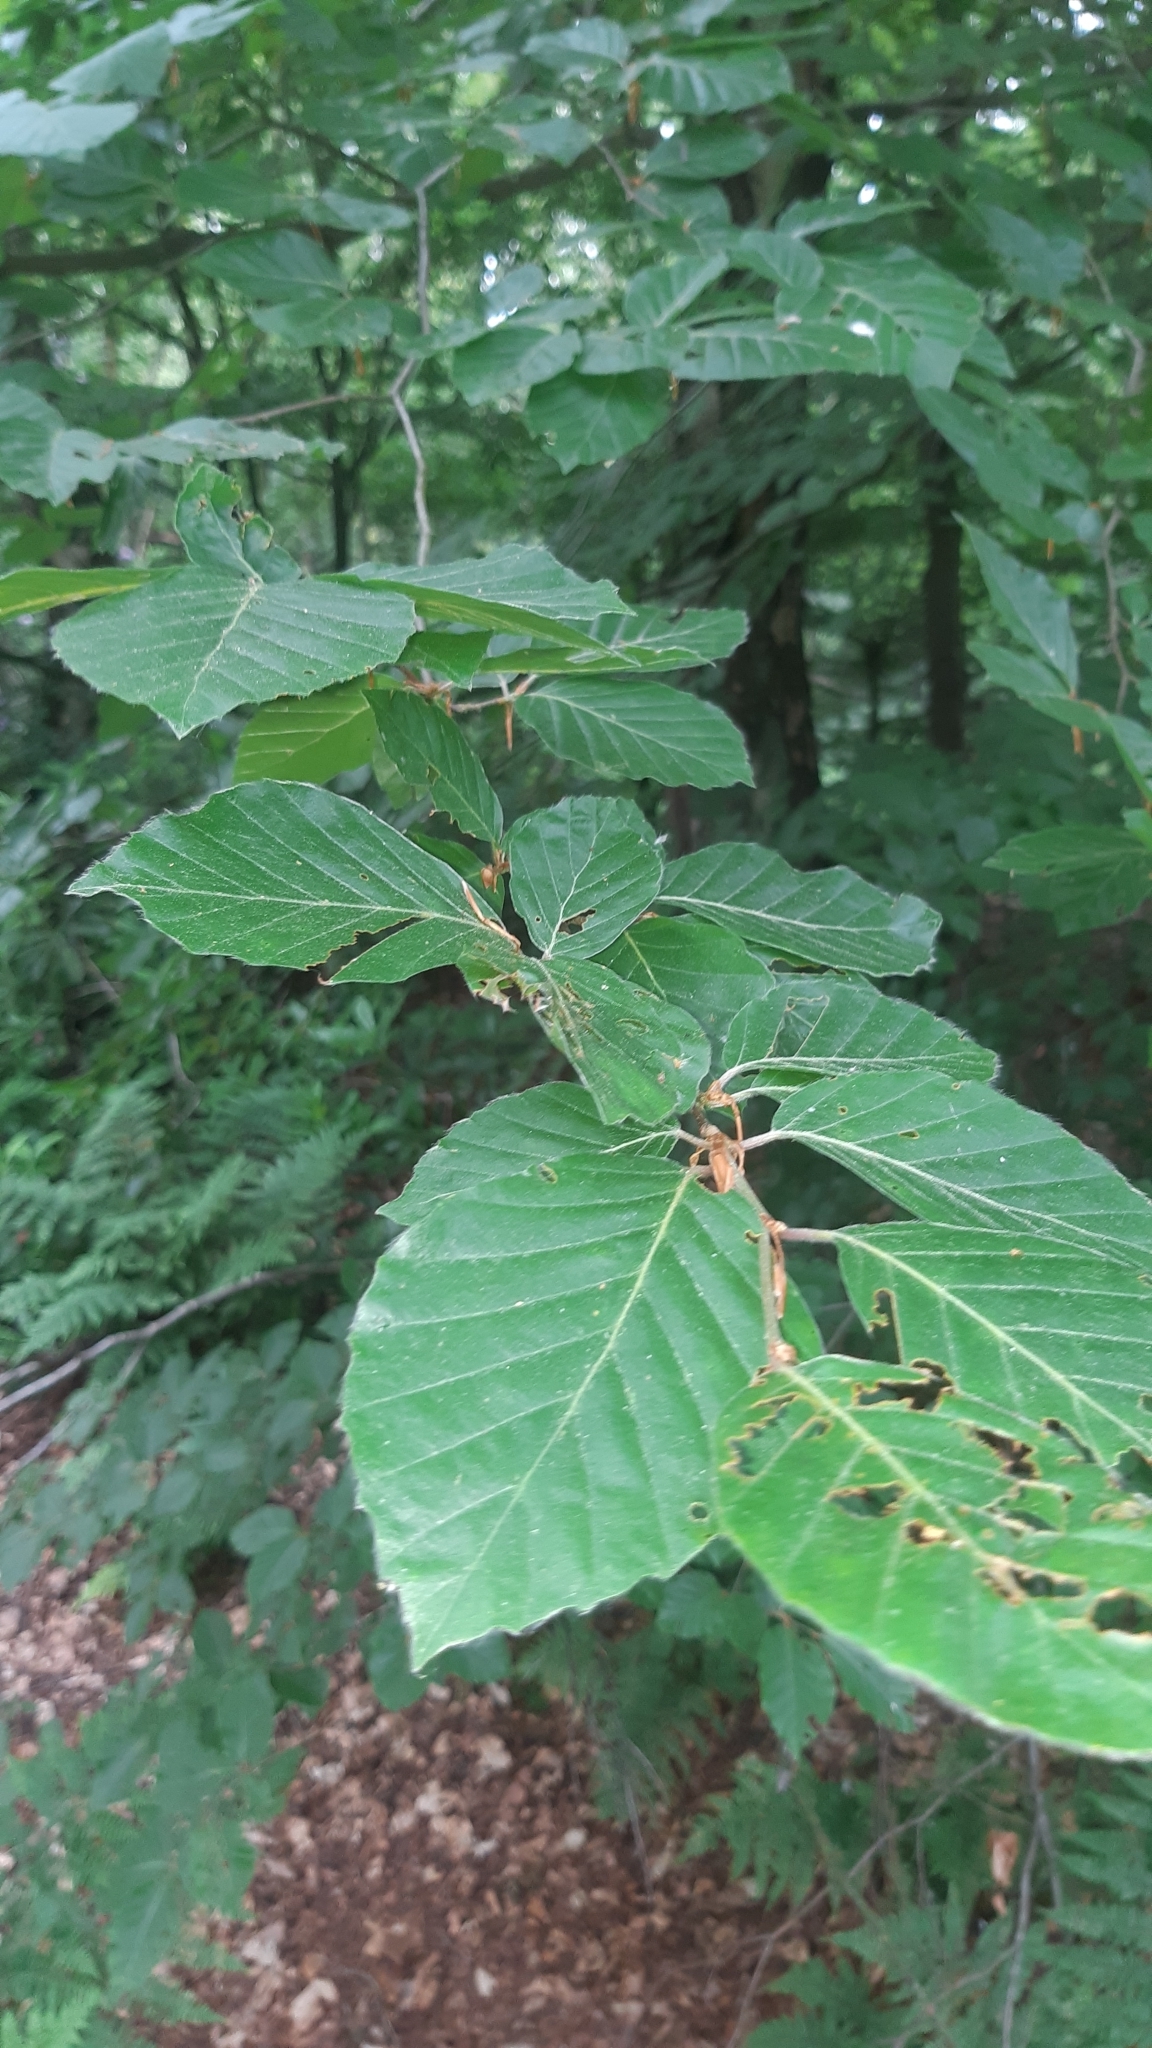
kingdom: Plantae
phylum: Tracheophyta
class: Magnoliopsida
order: Fagales
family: Fagaceae
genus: Fagus
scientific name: Fagus sylvatica
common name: Beech
